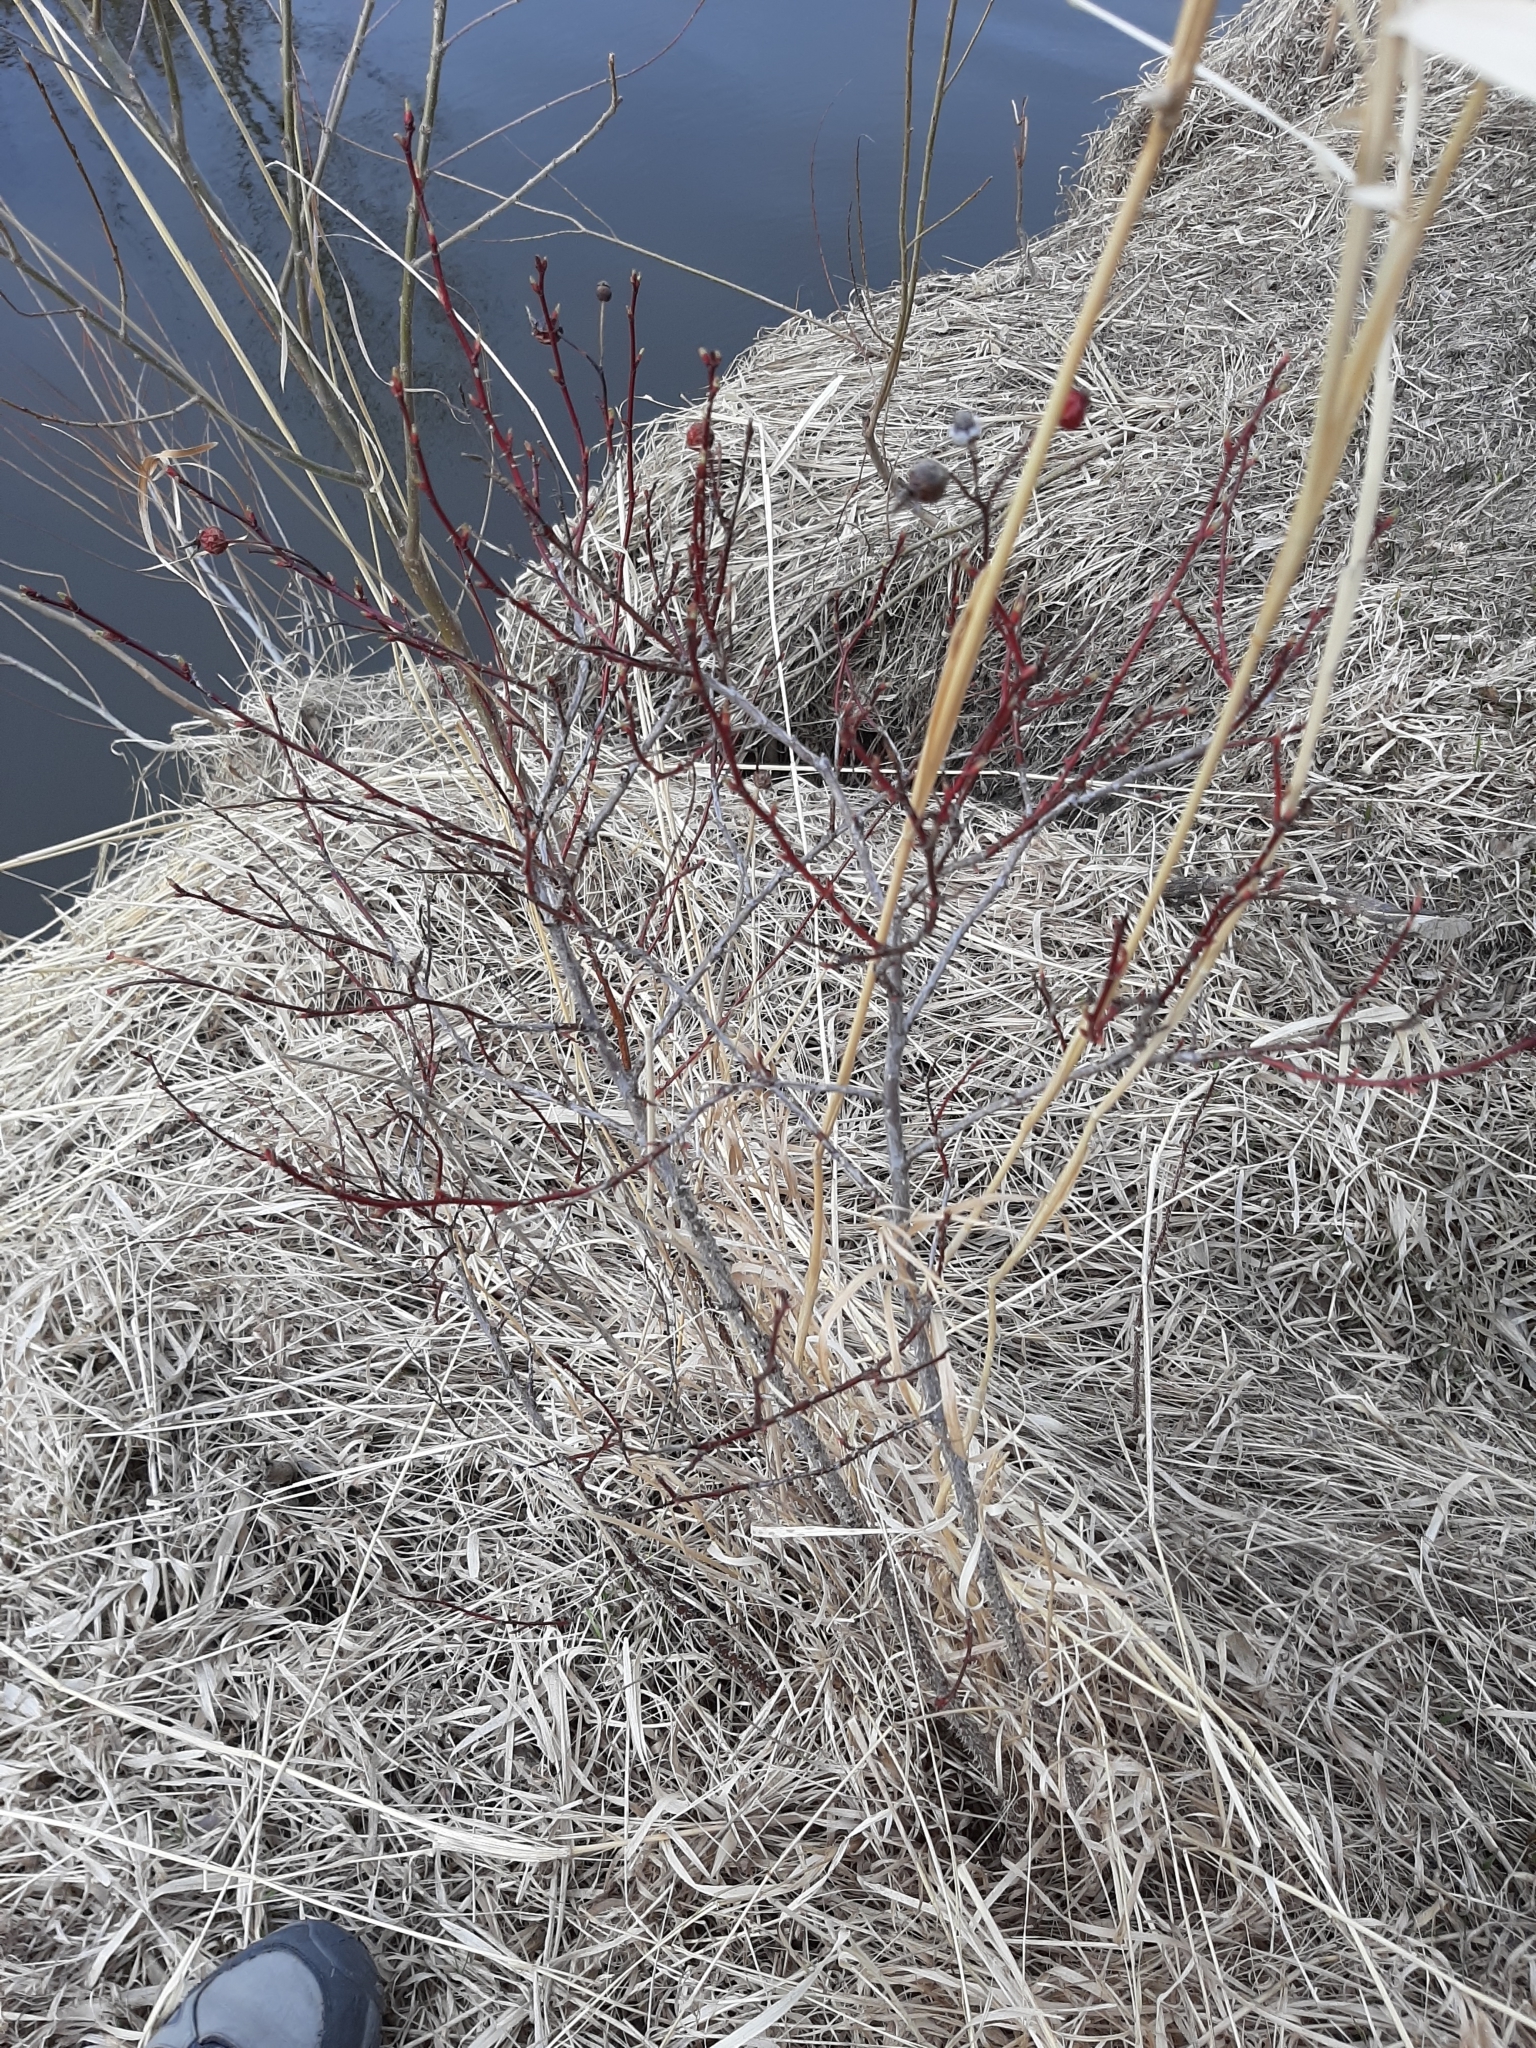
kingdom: Plantae
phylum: Tracheophyta
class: Magnoliopsida
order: Rosales
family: Rosaceae
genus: Rosa
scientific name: Rosa woodsii
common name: Woods's rose
